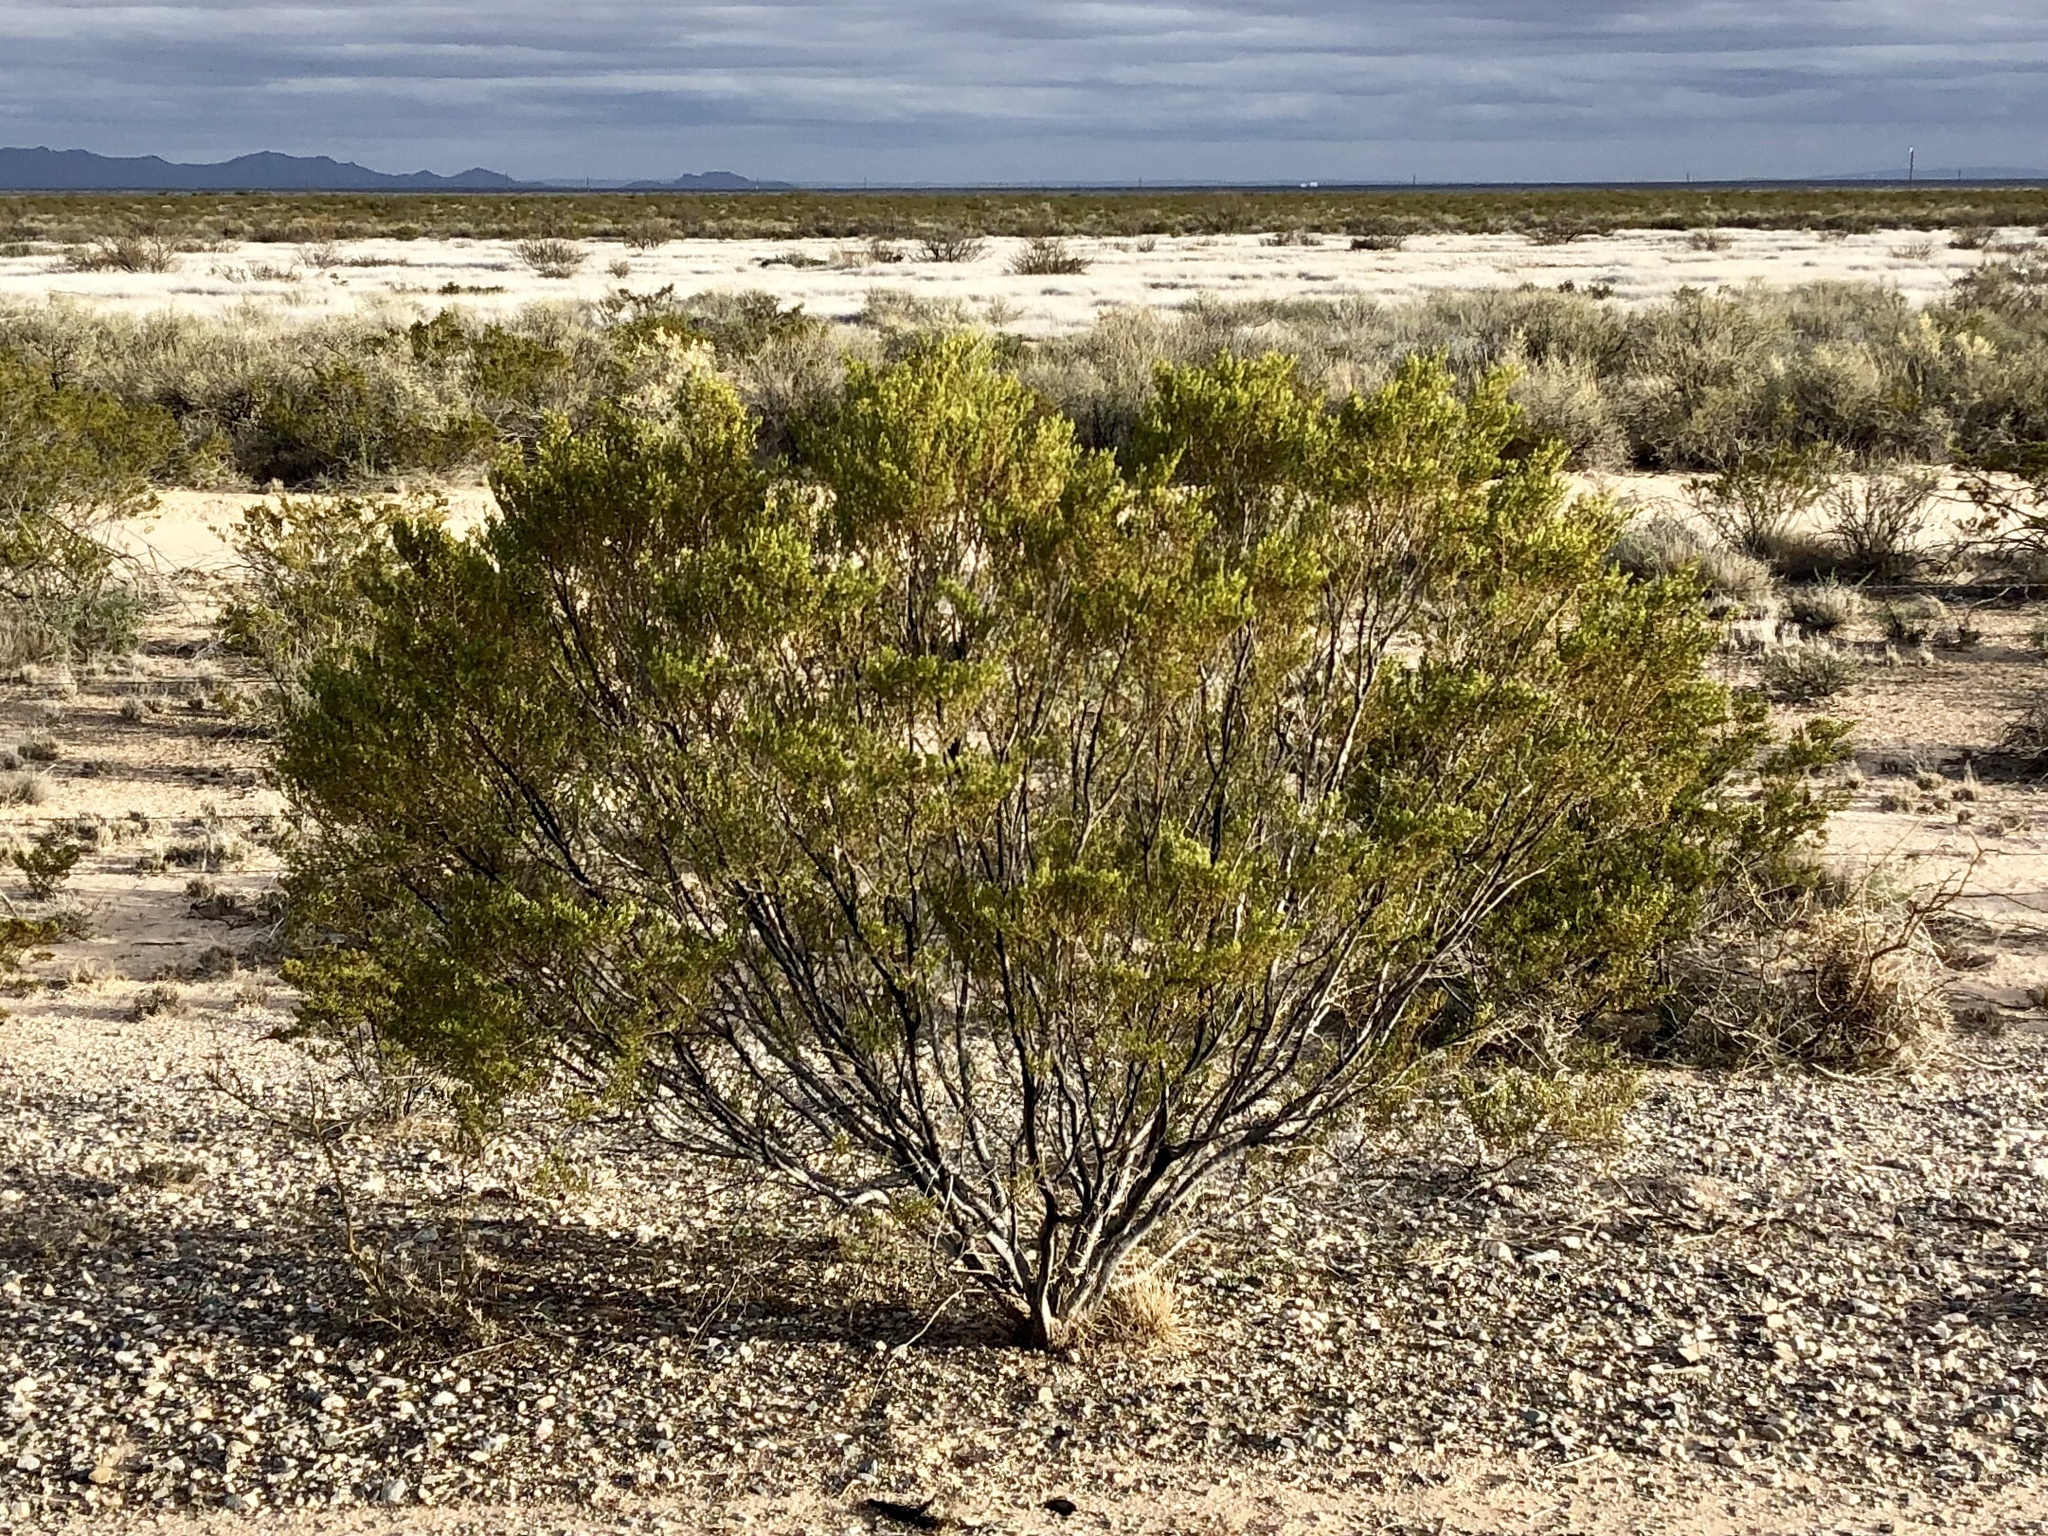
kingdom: Plantae
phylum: Tracheophyta
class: Magnoliopsida
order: Zygophyllales
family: Zygophyllaceae
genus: Larrea
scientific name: Larrea tridentata
